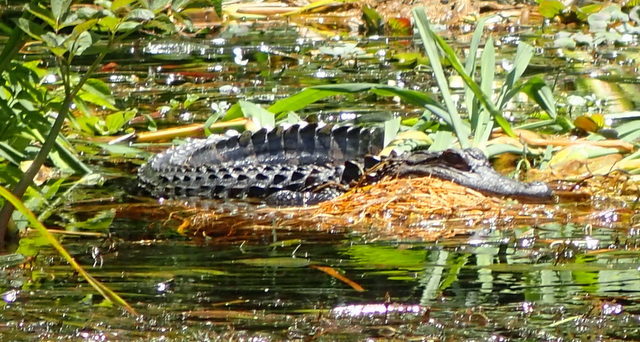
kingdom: Animalia
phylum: Chordata
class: Crocodylia
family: Alligatoridae
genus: Alligator
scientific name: Alligator mississippiensis
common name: American alligator
